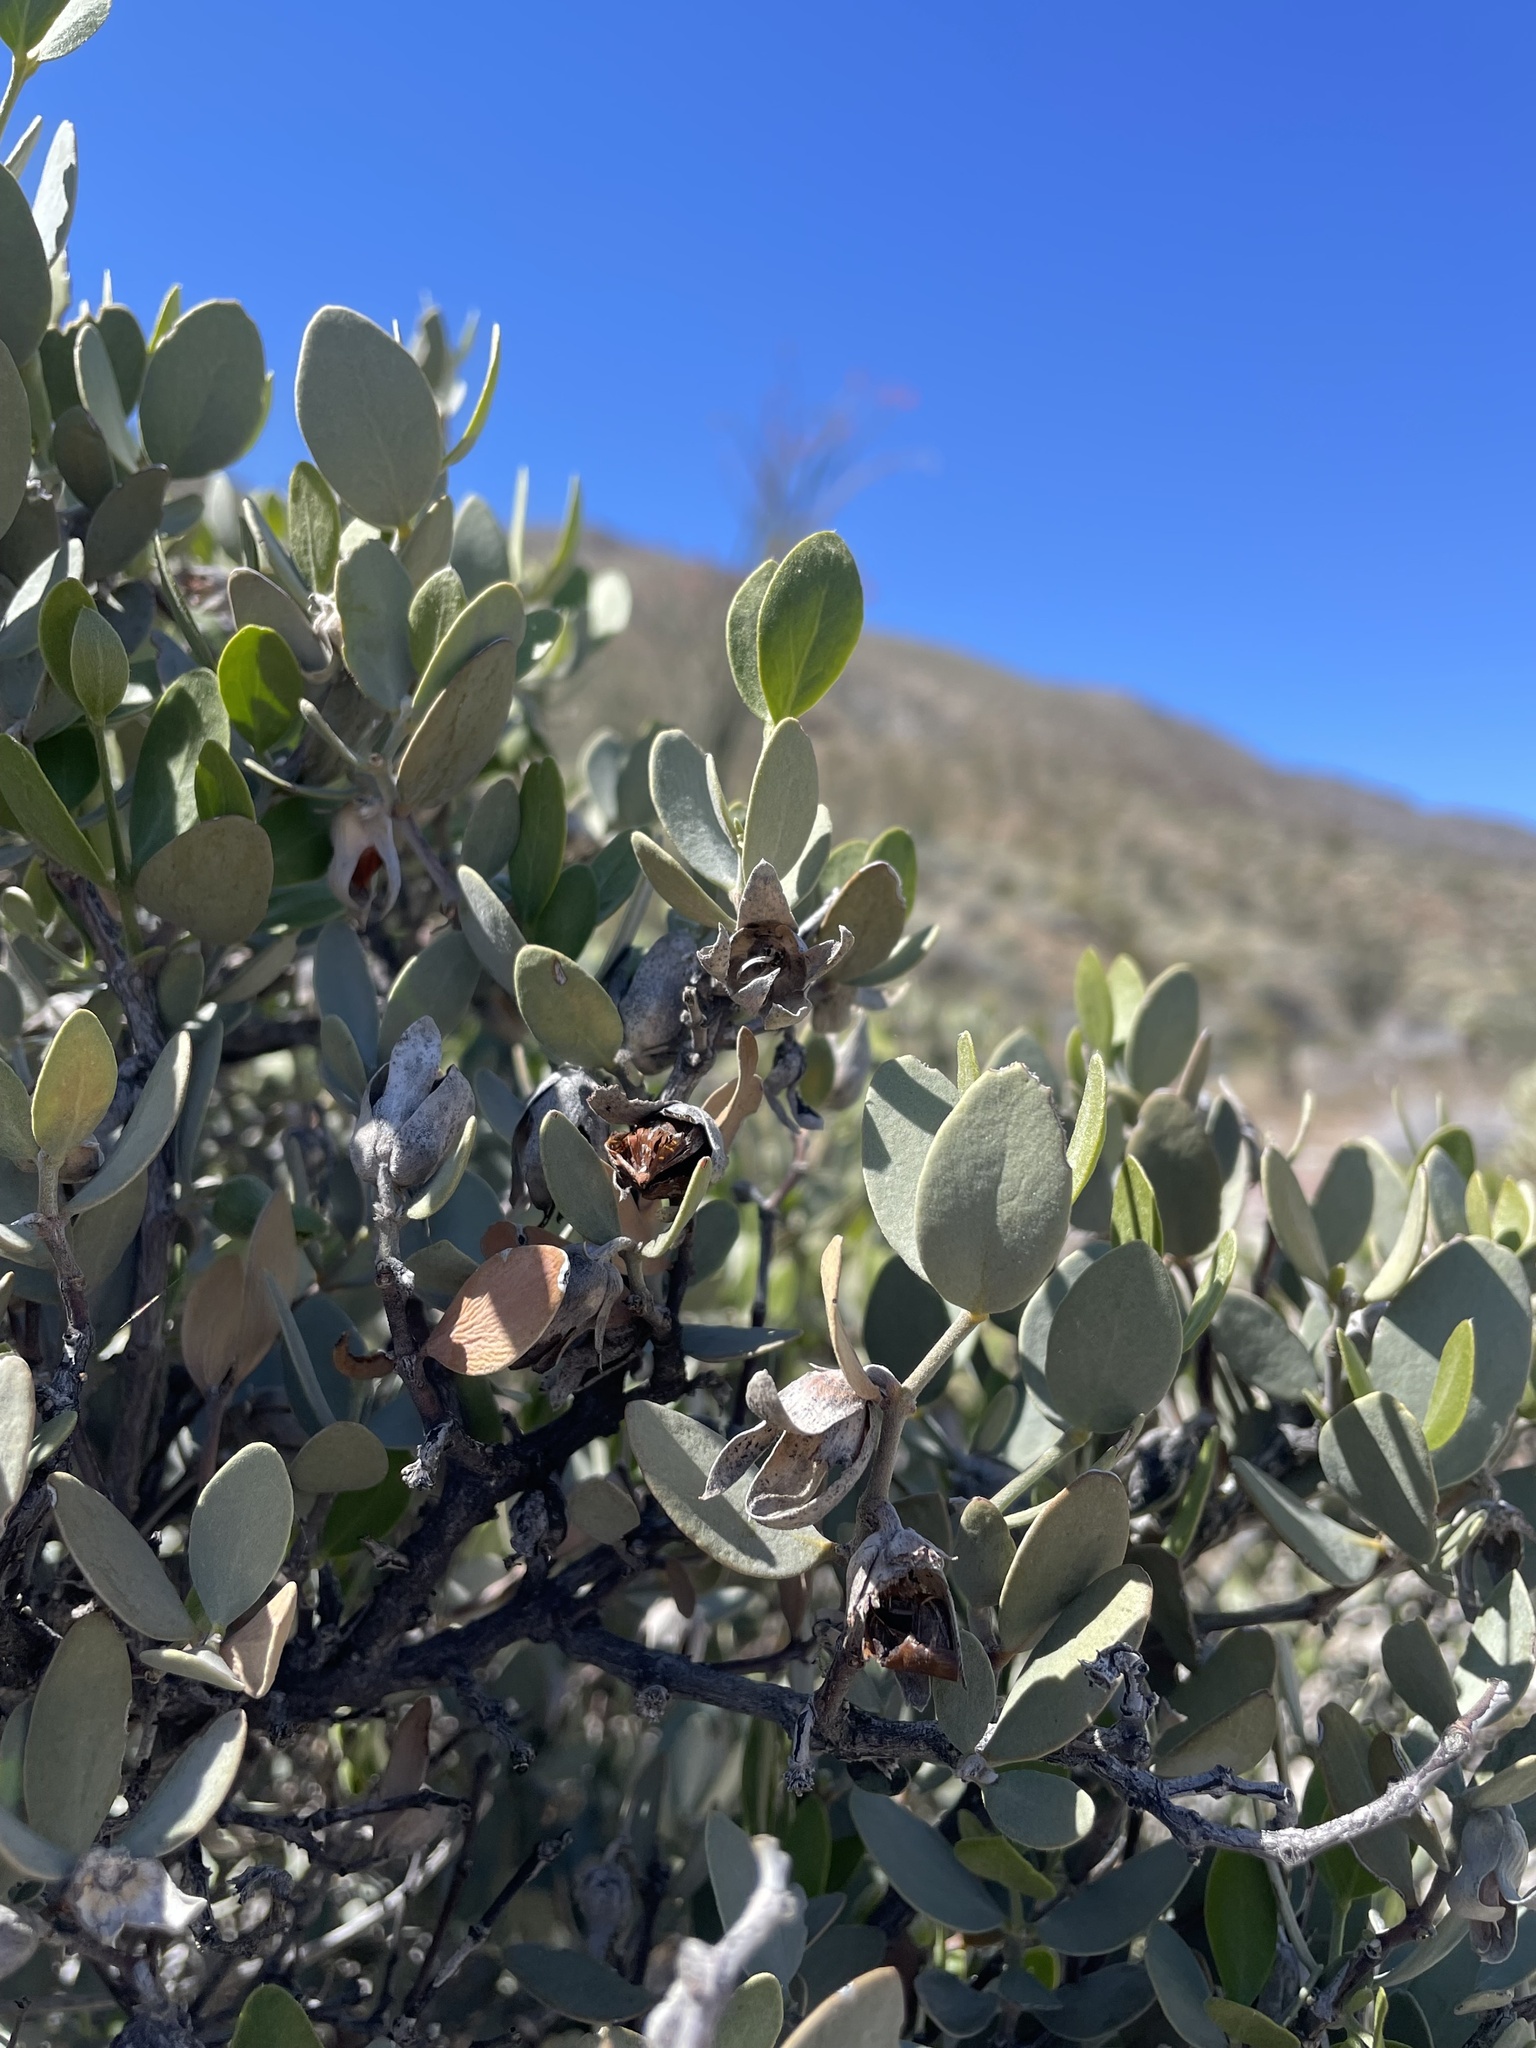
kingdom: Plantae
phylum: Tracheophyta
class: Magnoliopsida
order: Caryophyllales
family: Simmondsiaceae
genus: Simmondsia
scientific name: Simmondsia chinensis
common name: Jojoba
